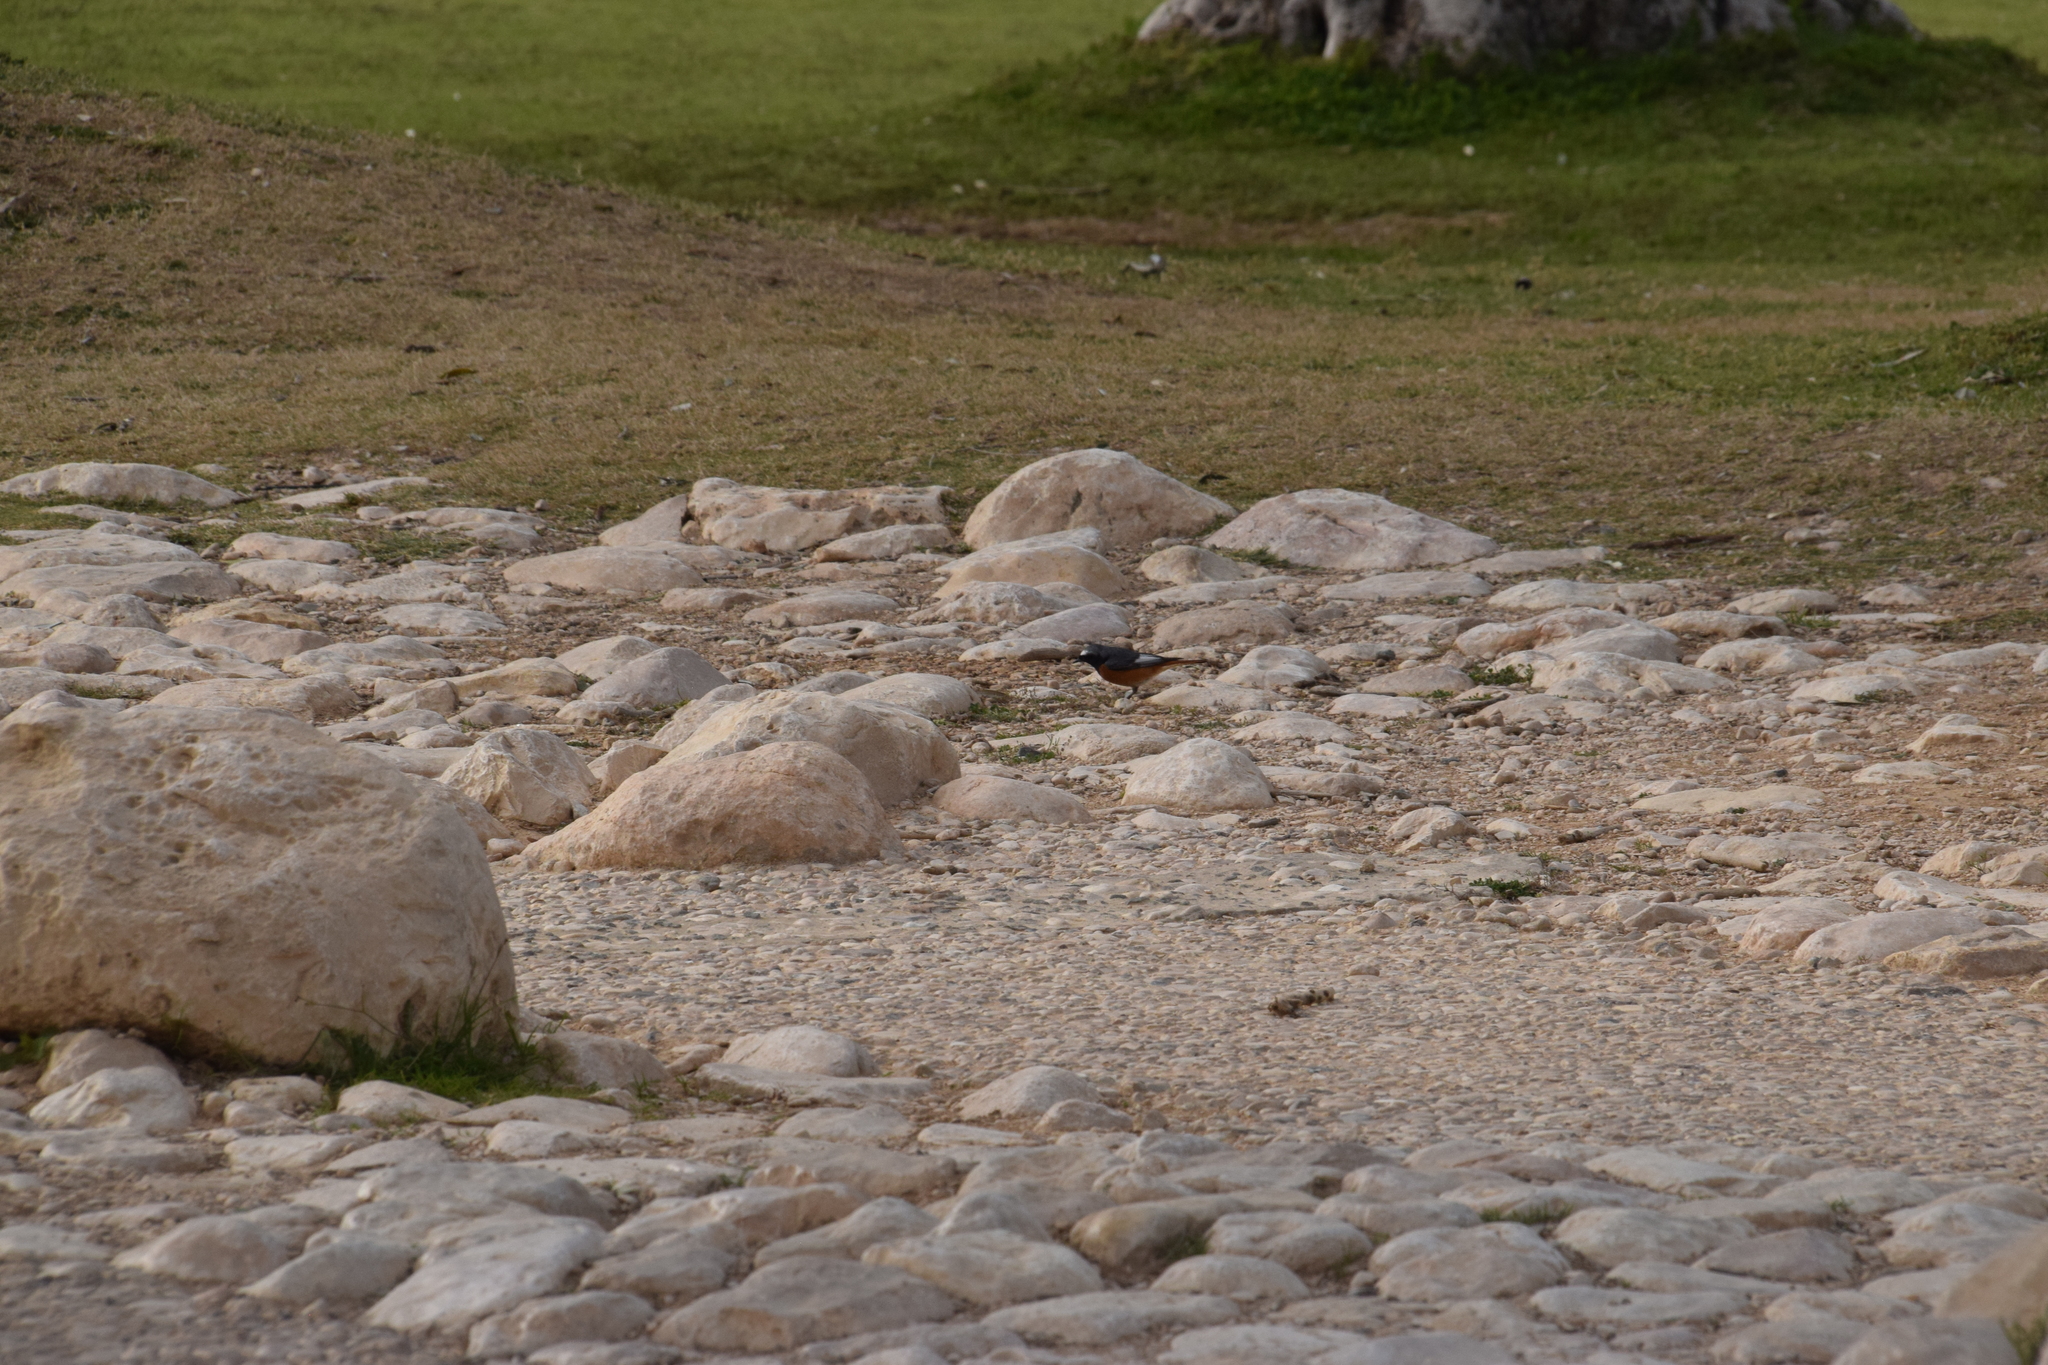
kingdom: Animalia
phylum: Chordata
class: Aves
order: Passeriformes
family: Muscicapidae
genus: Phoenicurus
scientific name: Phoenicurus phoenicurus
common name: Common redstart
